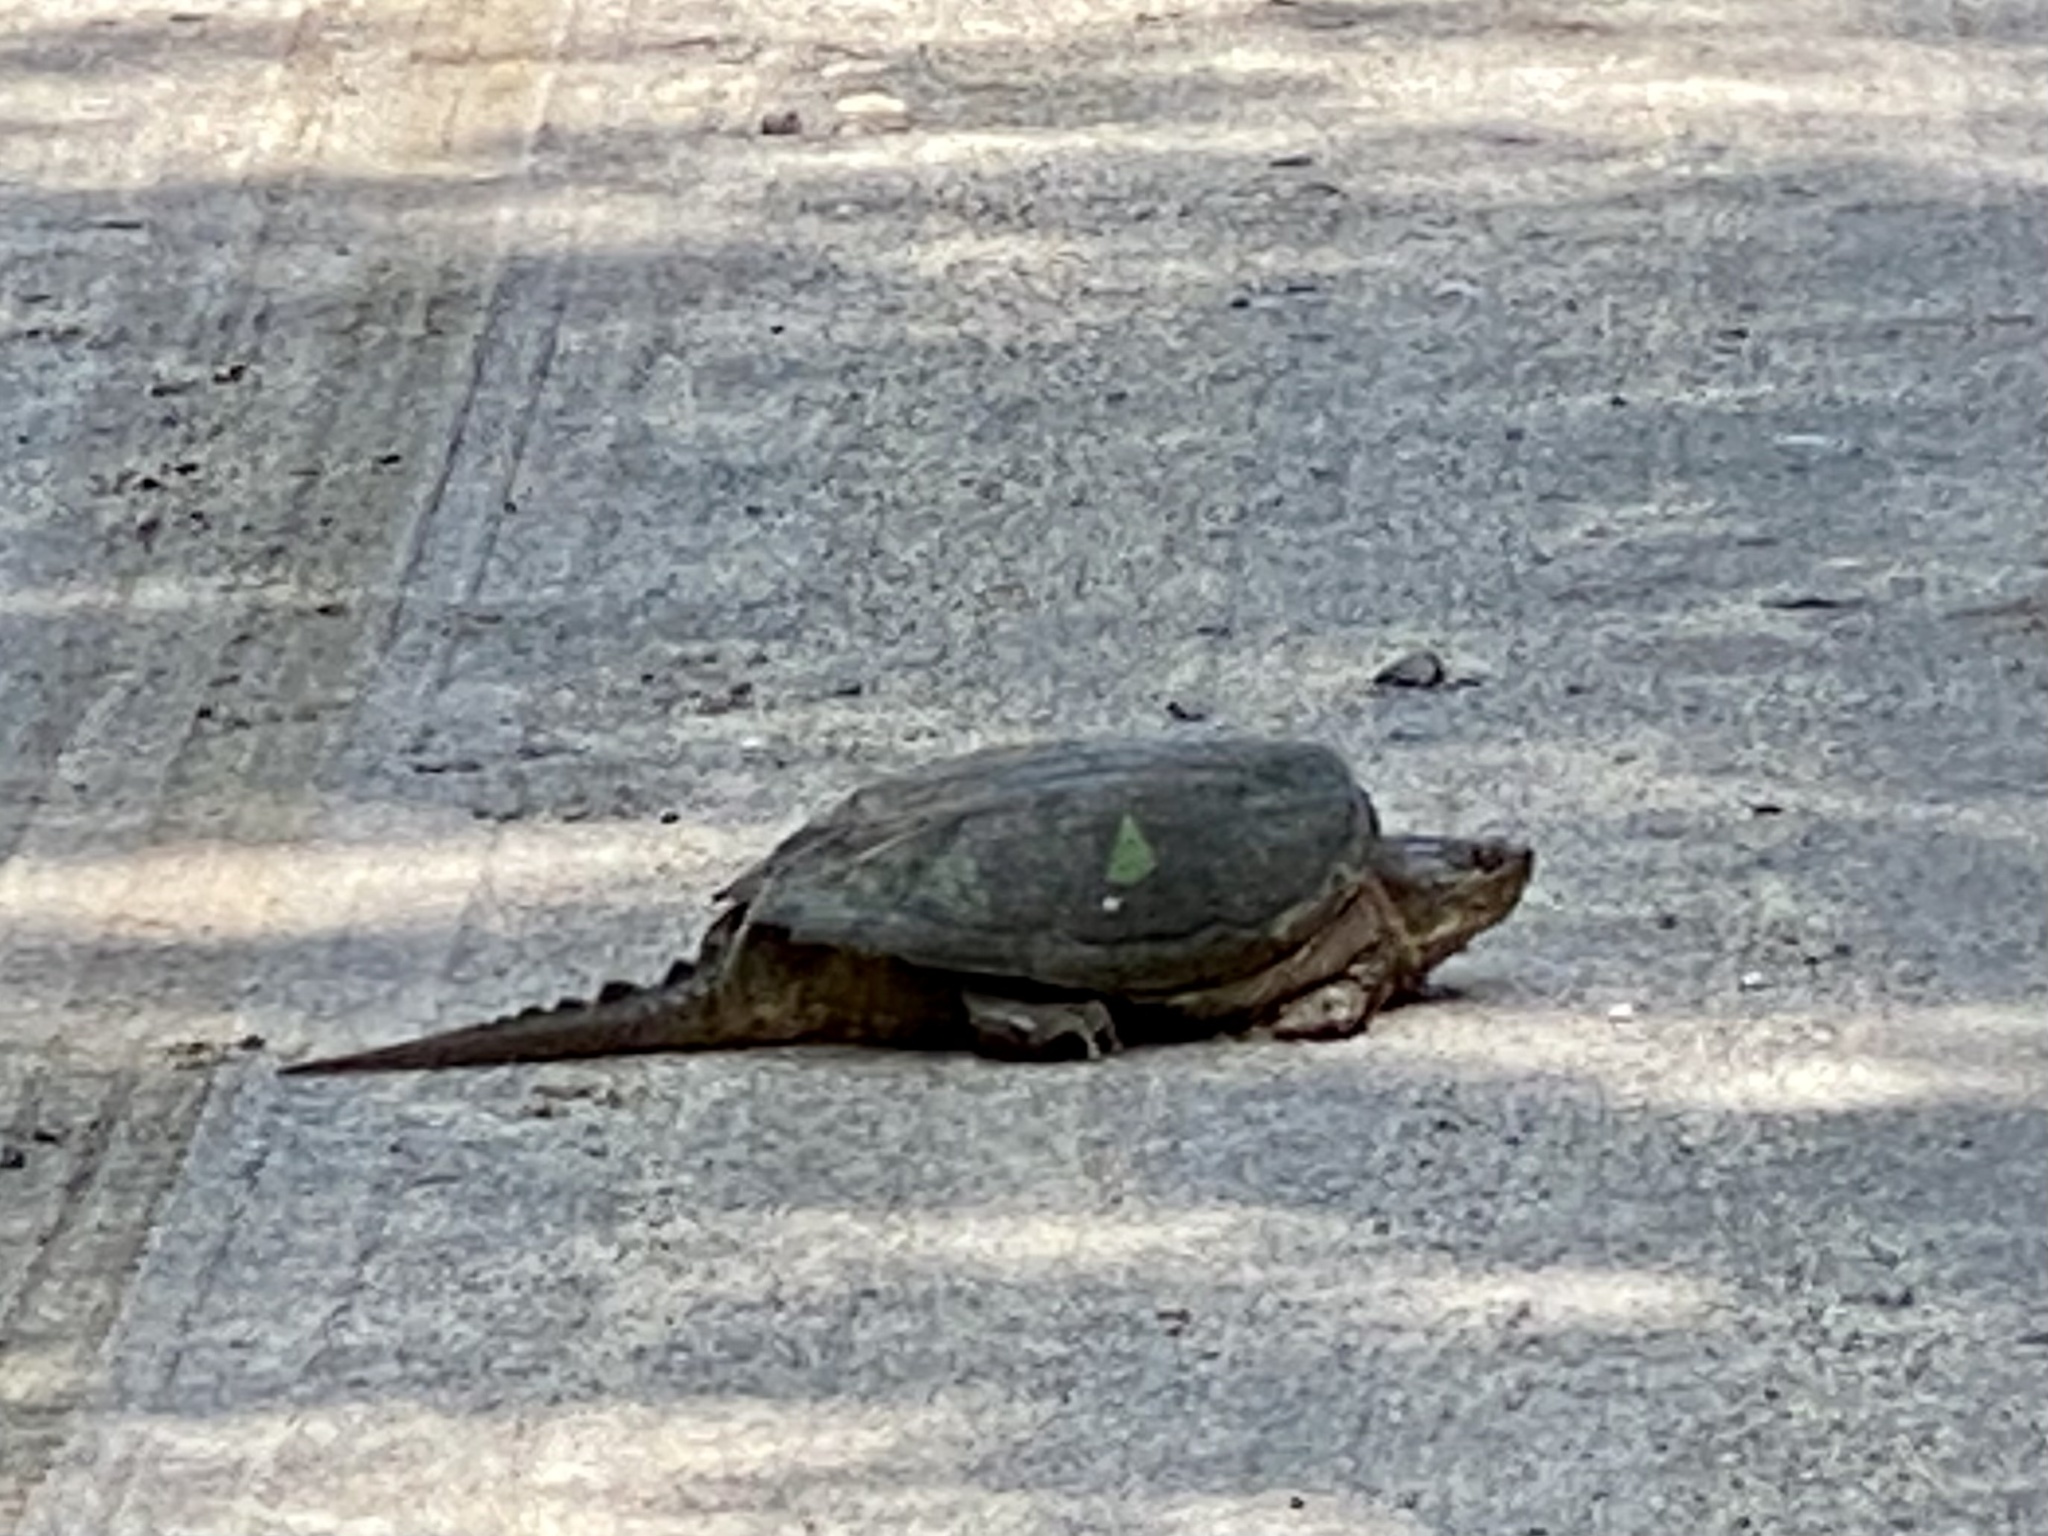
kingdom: Animalia
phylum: Chordata
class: Testudines
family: Chelydridae
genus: Chelydra
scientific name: Chelydra serpentina
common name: Common snapping turtle
